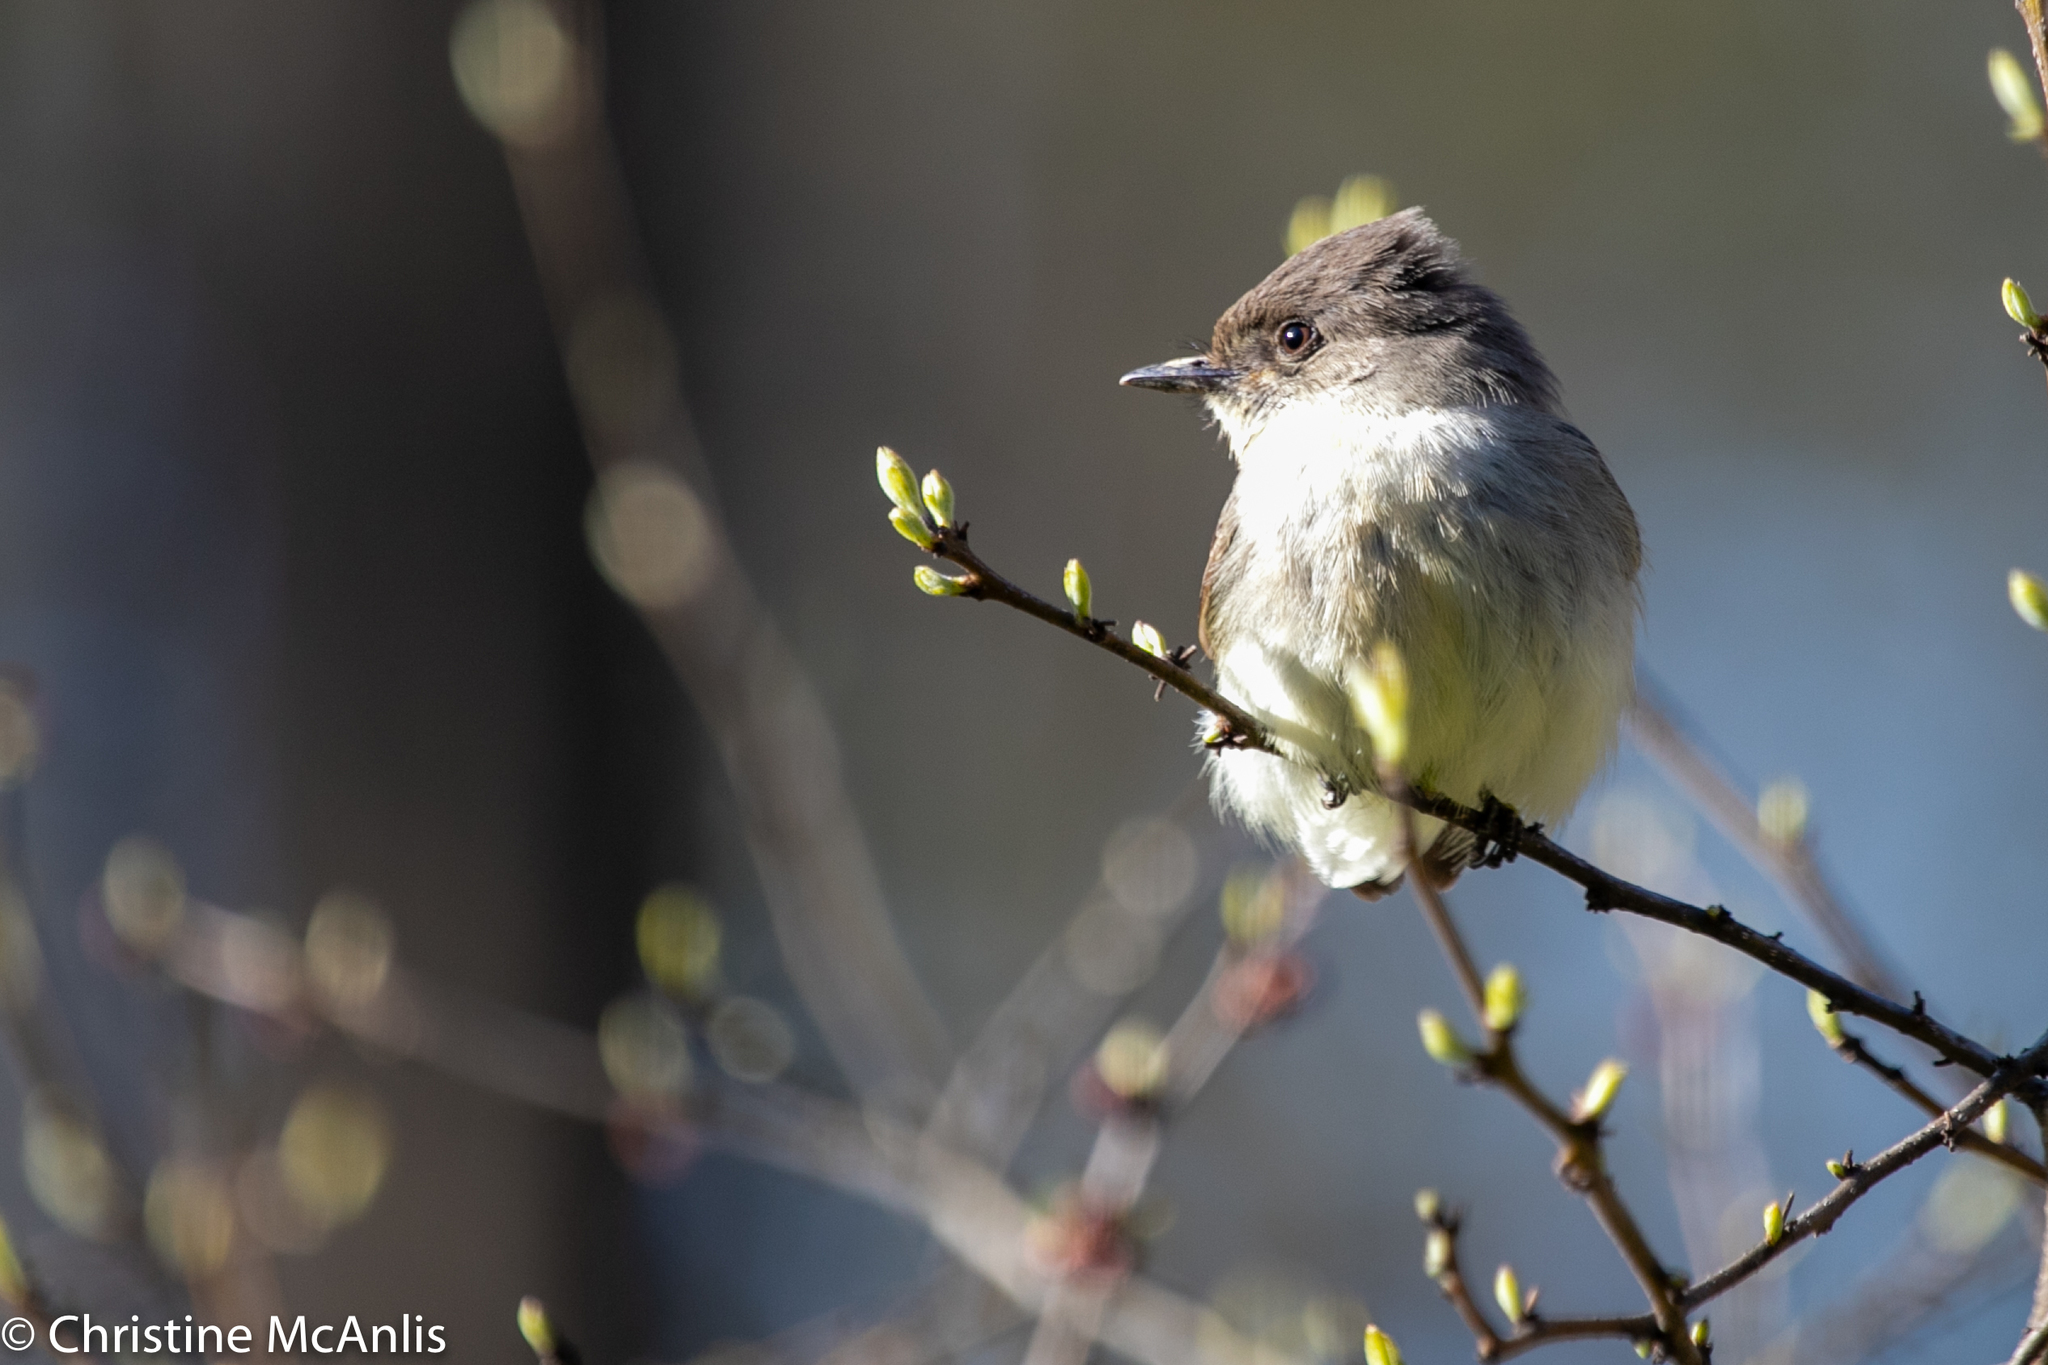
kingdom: Animalia
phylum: Chordata
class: Aves
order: Passeriformes
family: Tyrannidae
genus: Sayornis
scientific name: Sayornis phoebe
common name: Eastern phoebe
